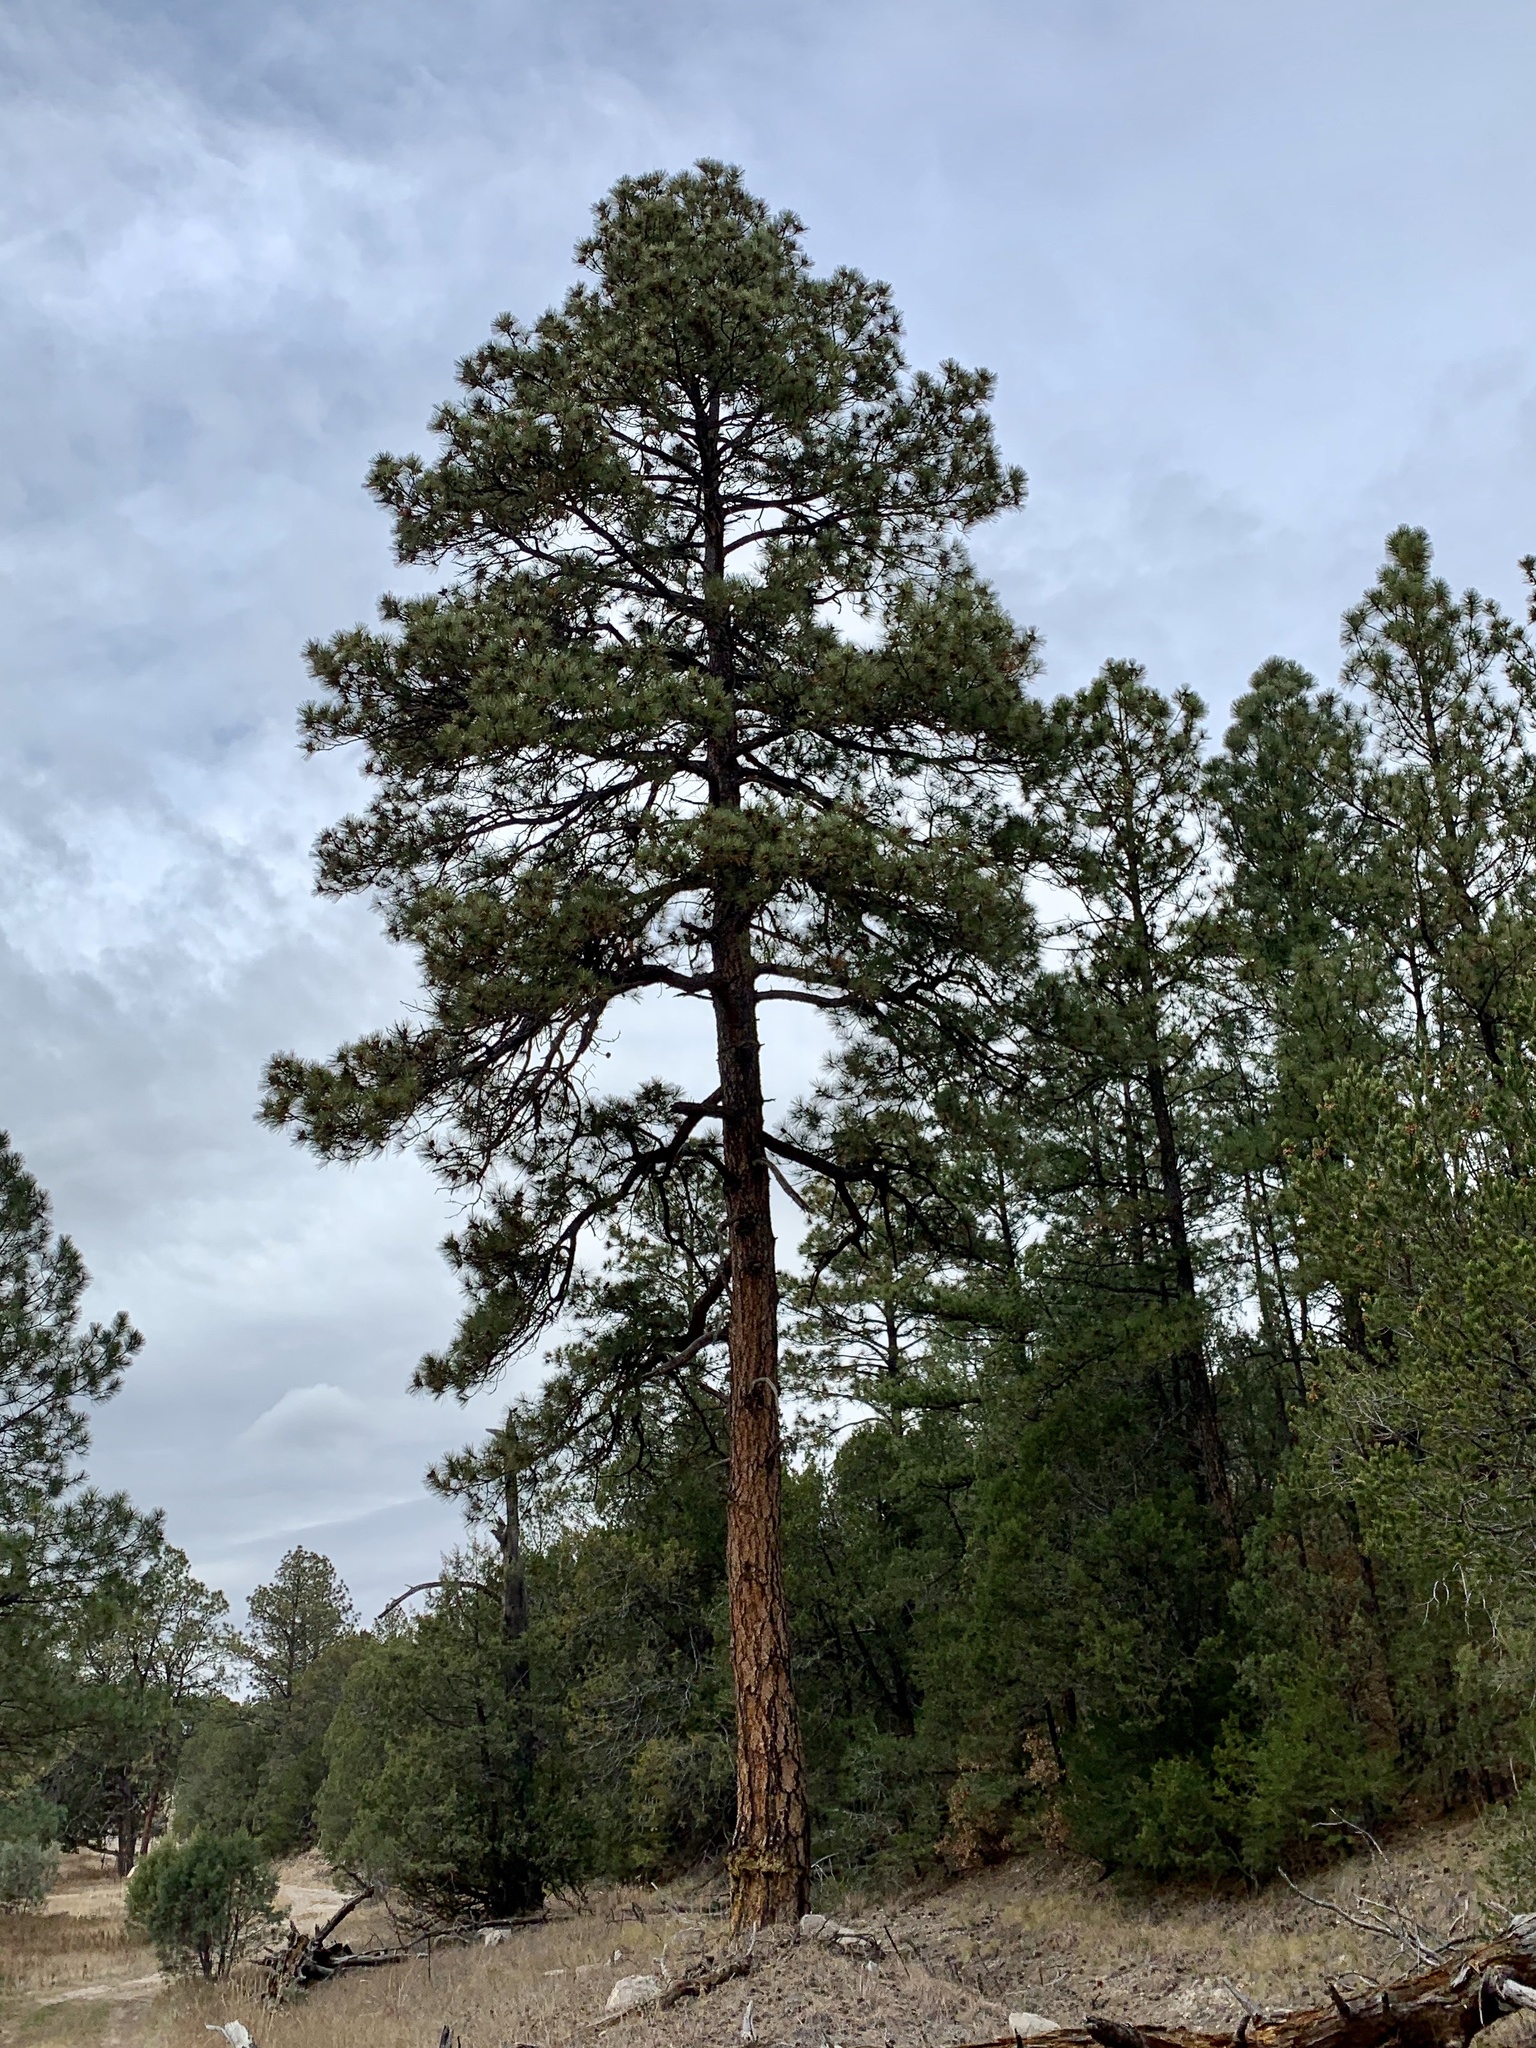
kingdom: Plantae
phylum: Tracheophyta
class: Pinopsida
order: Pinales
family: Pinaceae
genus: Pinus
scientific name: Pinus ponderosa
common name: Western yellow-pine
